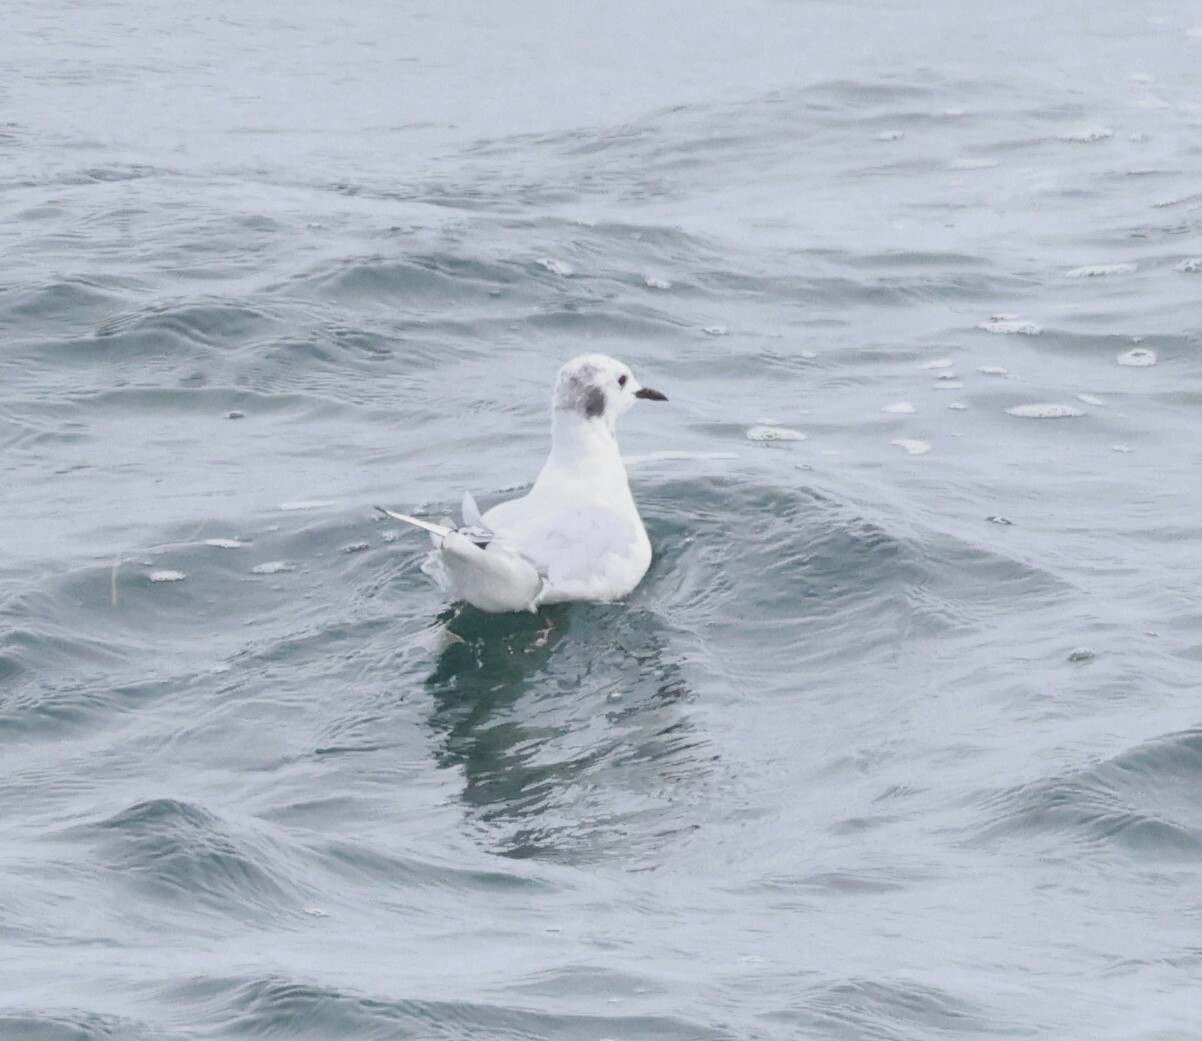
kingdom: Animalia
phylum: Chordata
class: Aves
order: Charadriiformes
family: Laridae
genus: Chroicocephalus
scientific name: Chroicocephalus philadelphia
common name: Bonaparte's gull
